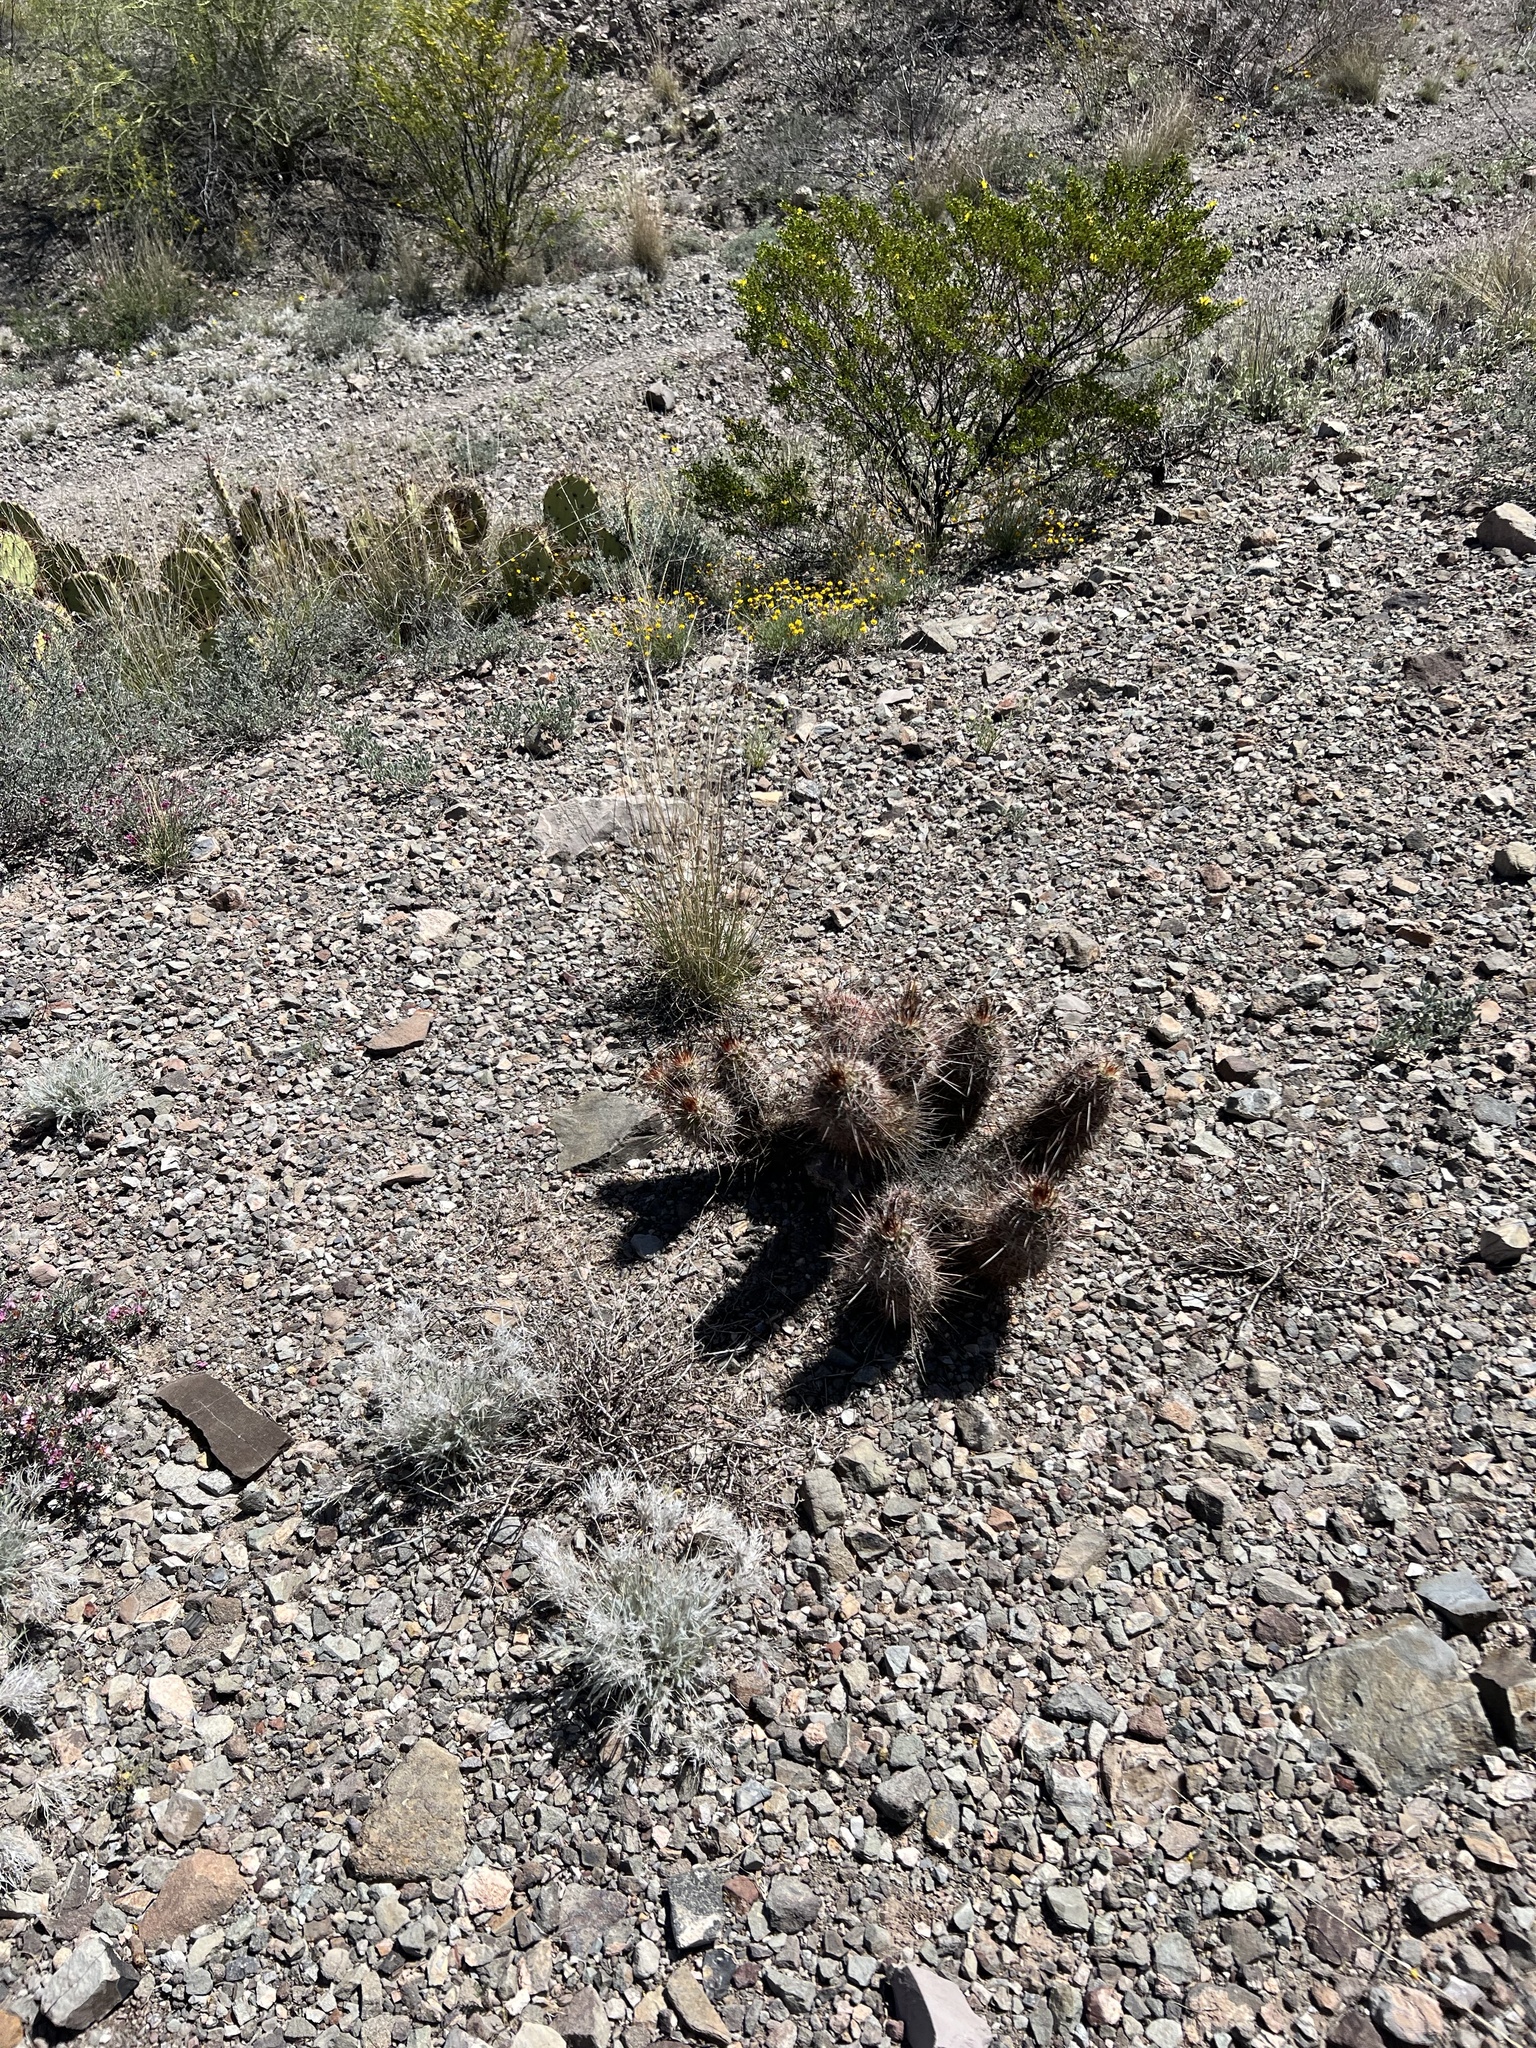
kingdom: Plantae
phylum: Tracheophyta
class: Magnoliopsida
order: Caryophyllales
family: Cactaceae
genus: Echinocereus
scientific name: Echinocereus fasciculatus
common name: Bundle hedgehog
